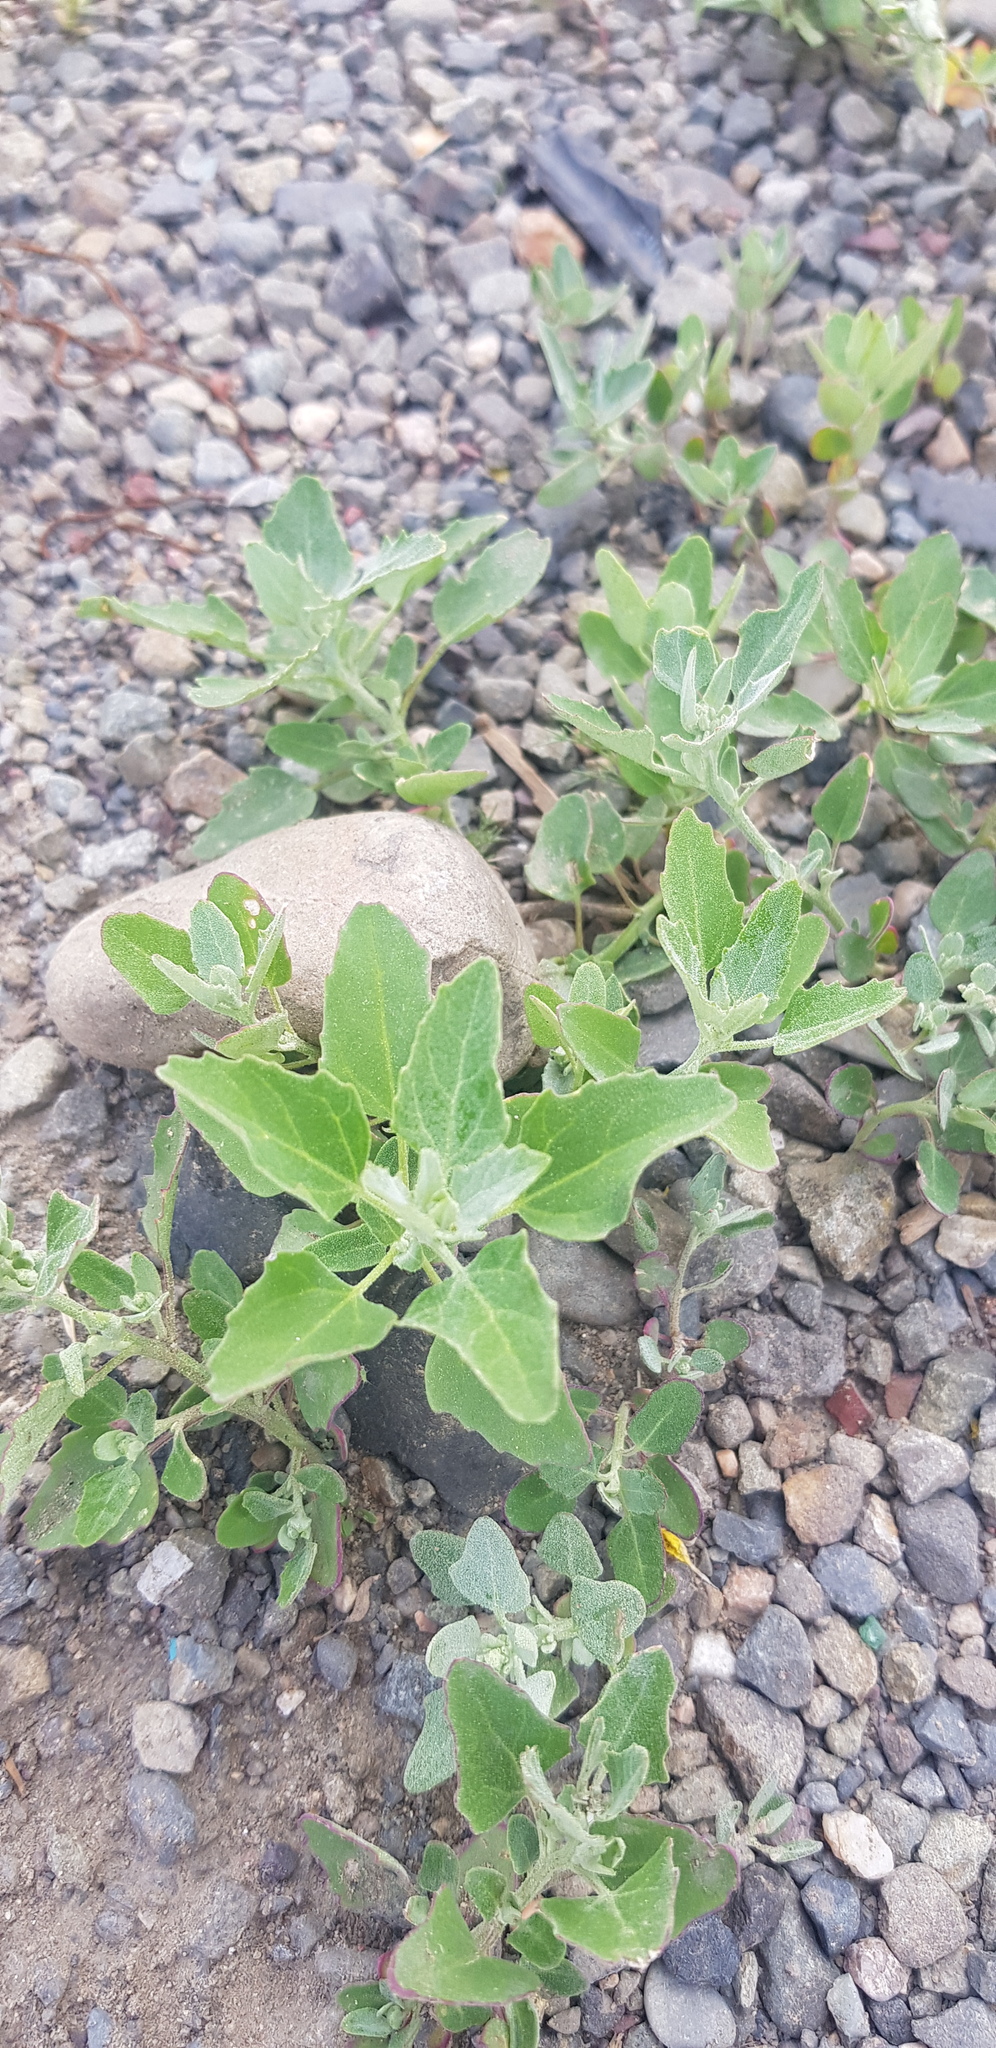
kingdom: Plantae
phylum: Tracheophyta
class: Magnoliopsida
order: Caryophyllales
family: Amaranthaceae
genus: Chenopodium
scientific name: Chenopodium album
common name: Fat-hen
